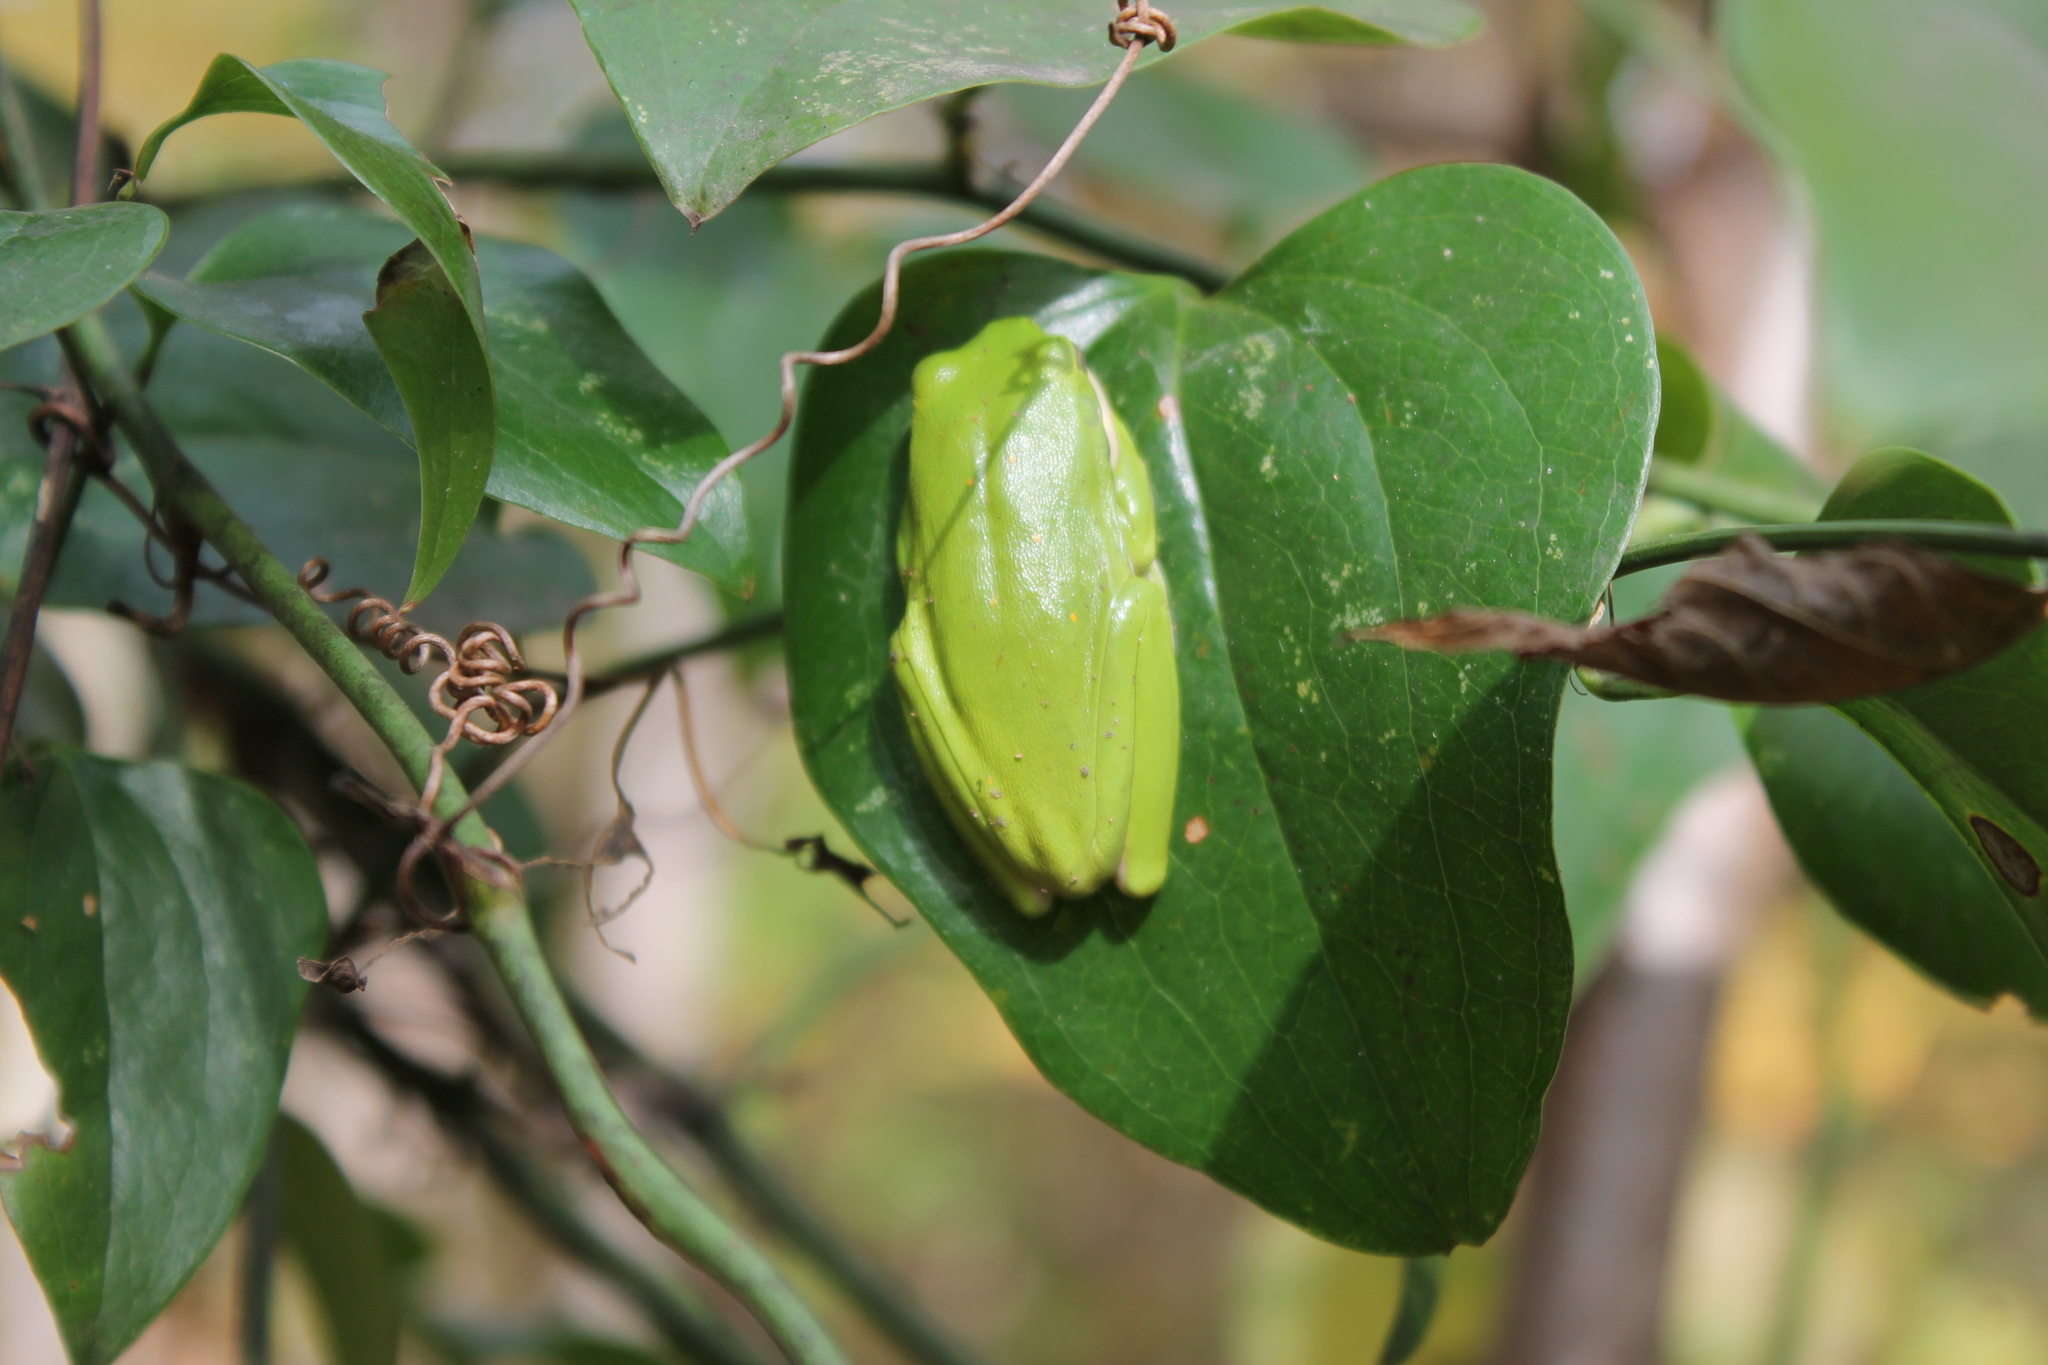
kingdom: Animalia
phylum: Chordata
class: Amphibia
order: Anura
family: Hylidae
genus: Dryophytes
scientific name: Dryophytes cinereus
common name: Green treefrog
